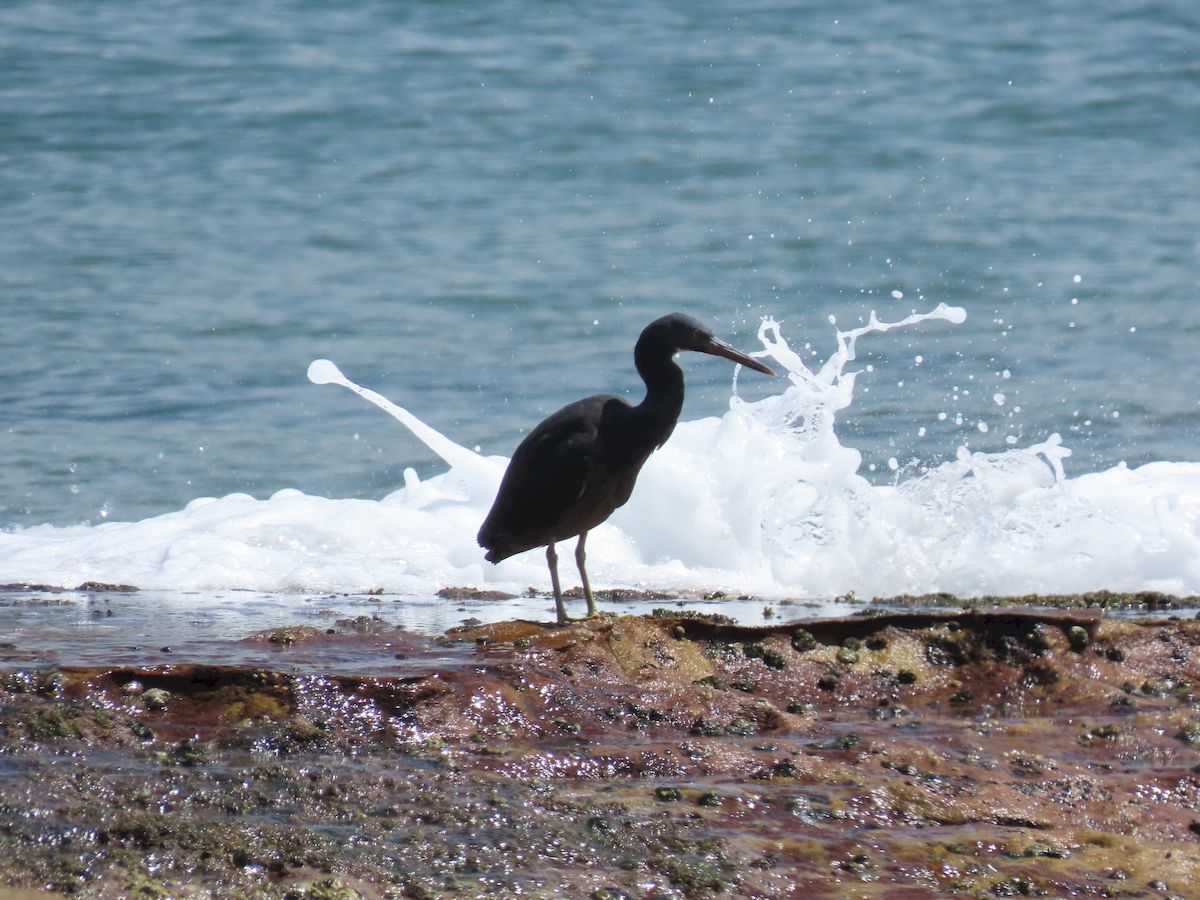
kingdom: Animalia
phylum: Chordata
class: Aves
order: Pelecaniformes
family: Ardeidae
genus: Egretta
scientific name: Egretta sacra
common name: Pacific reef heron
